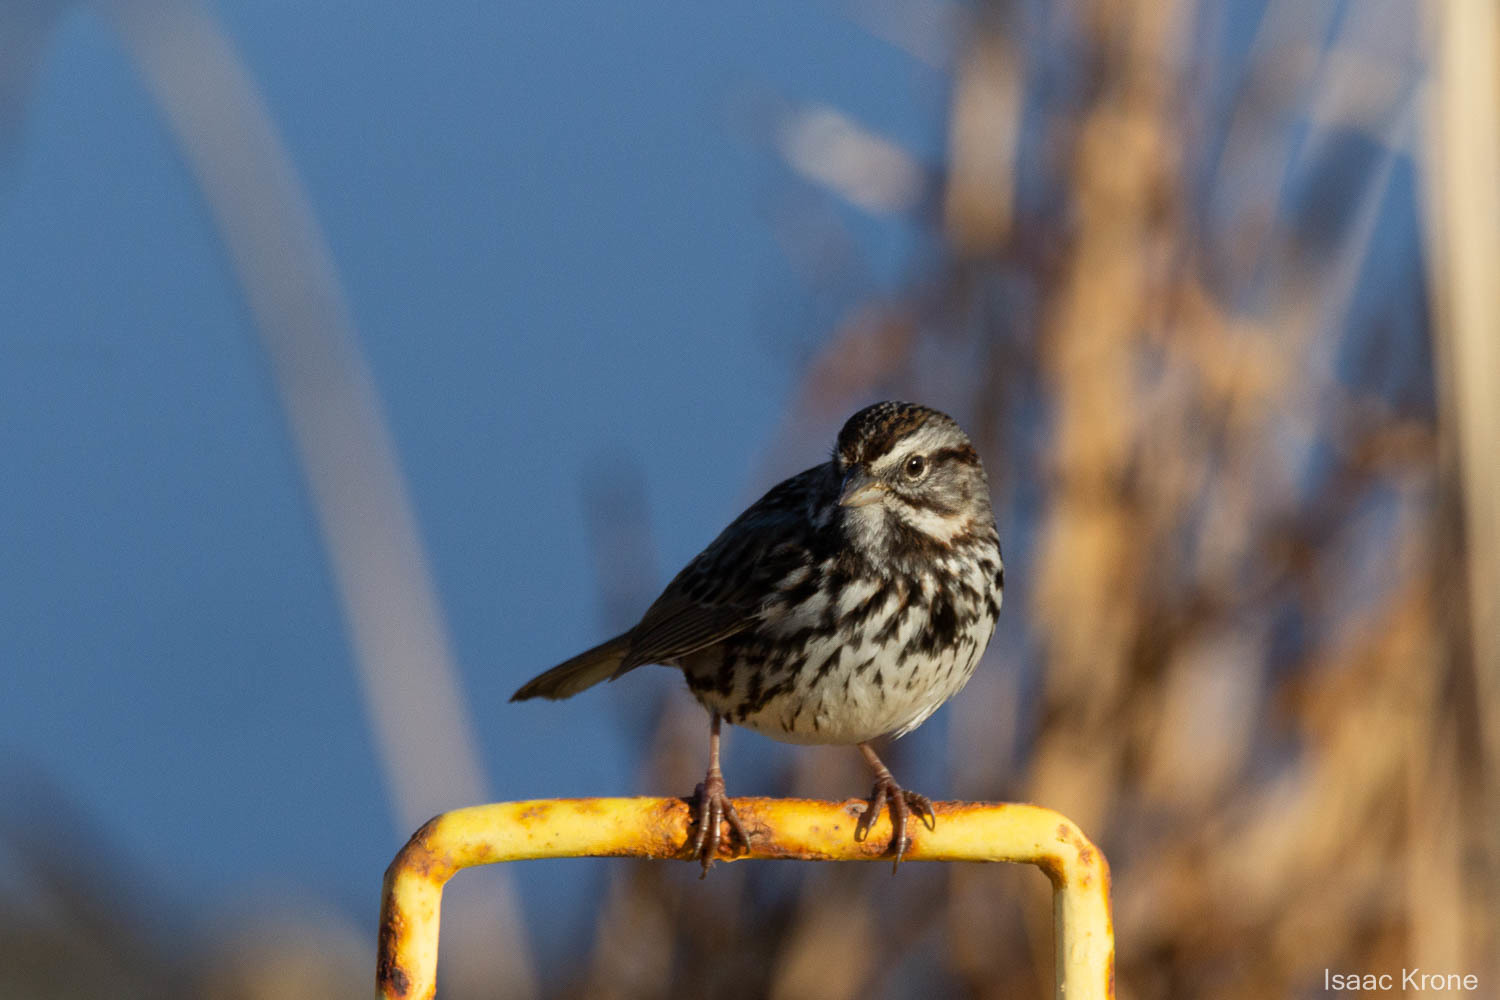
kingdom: Animalia
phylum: Chordata
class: Aves
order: Passeriformes
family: Passerellidae
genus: Melospiza
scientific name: Melospiza melodia
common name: Song sparrow
